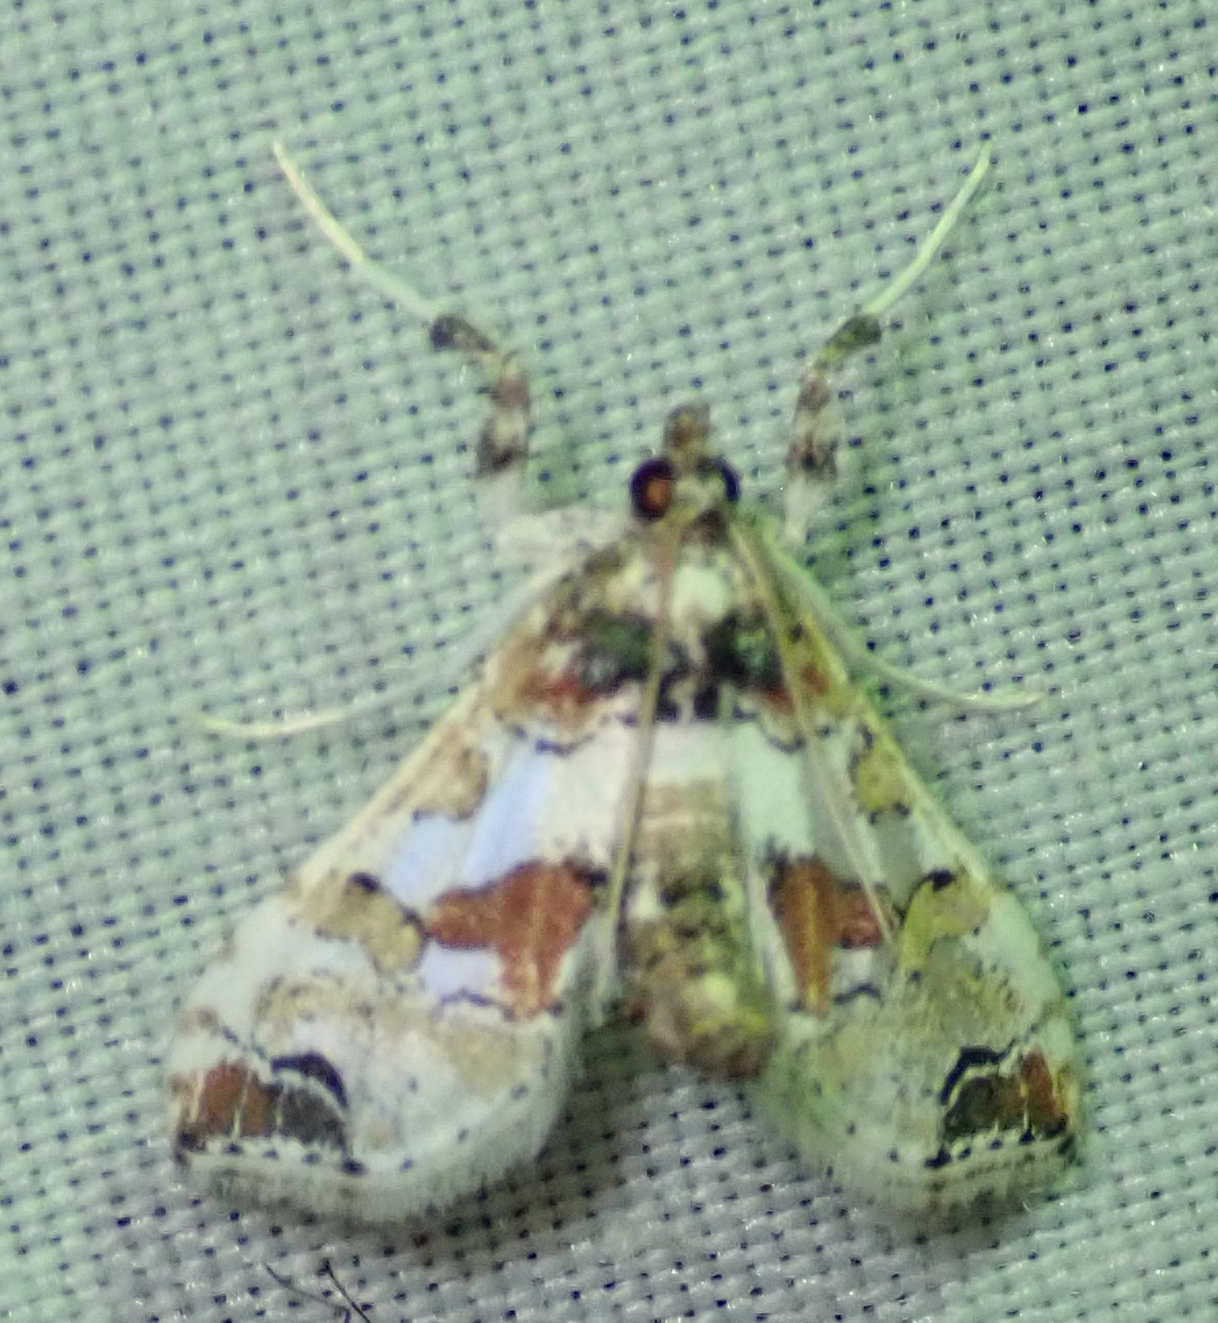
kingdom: Animalia
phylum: Arthropoda
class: Insecta
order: Lepidoptera
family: Crambidae
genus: Leucinodes
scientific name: Leucinodes pseudorbonalis
